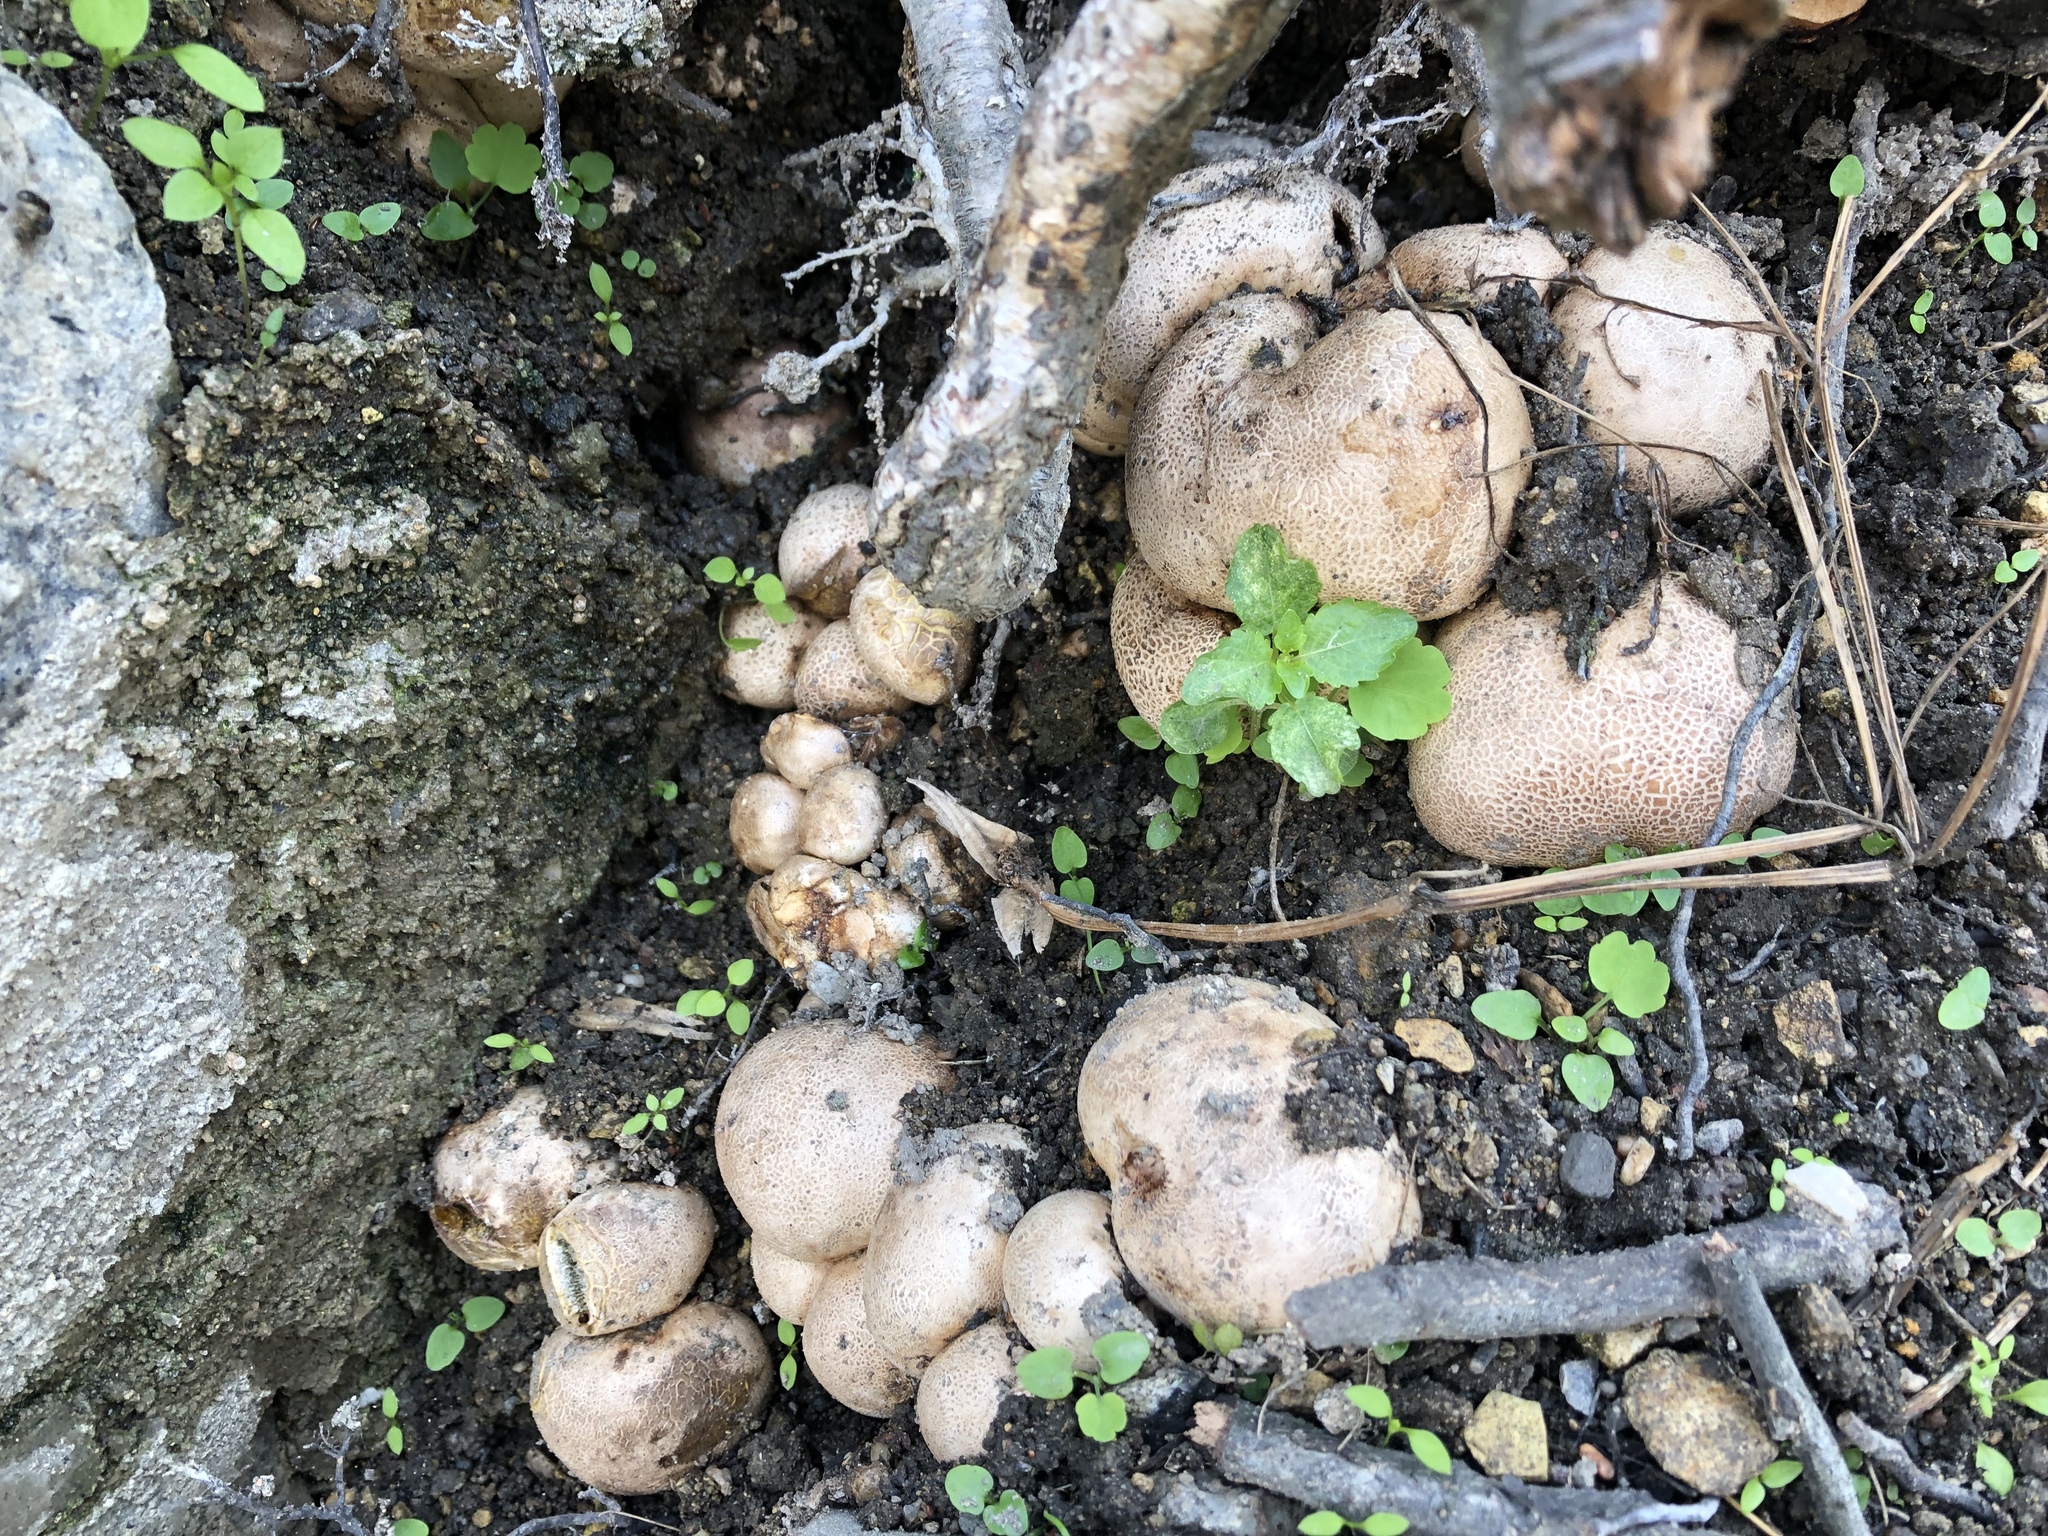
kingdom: Fungi
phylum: Basidiomycota
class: Agaricomycetes
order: Boletales
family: Sclerodermataceae
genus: Scleroderma
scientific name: Scleroderma citrinum
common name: Common earthball
